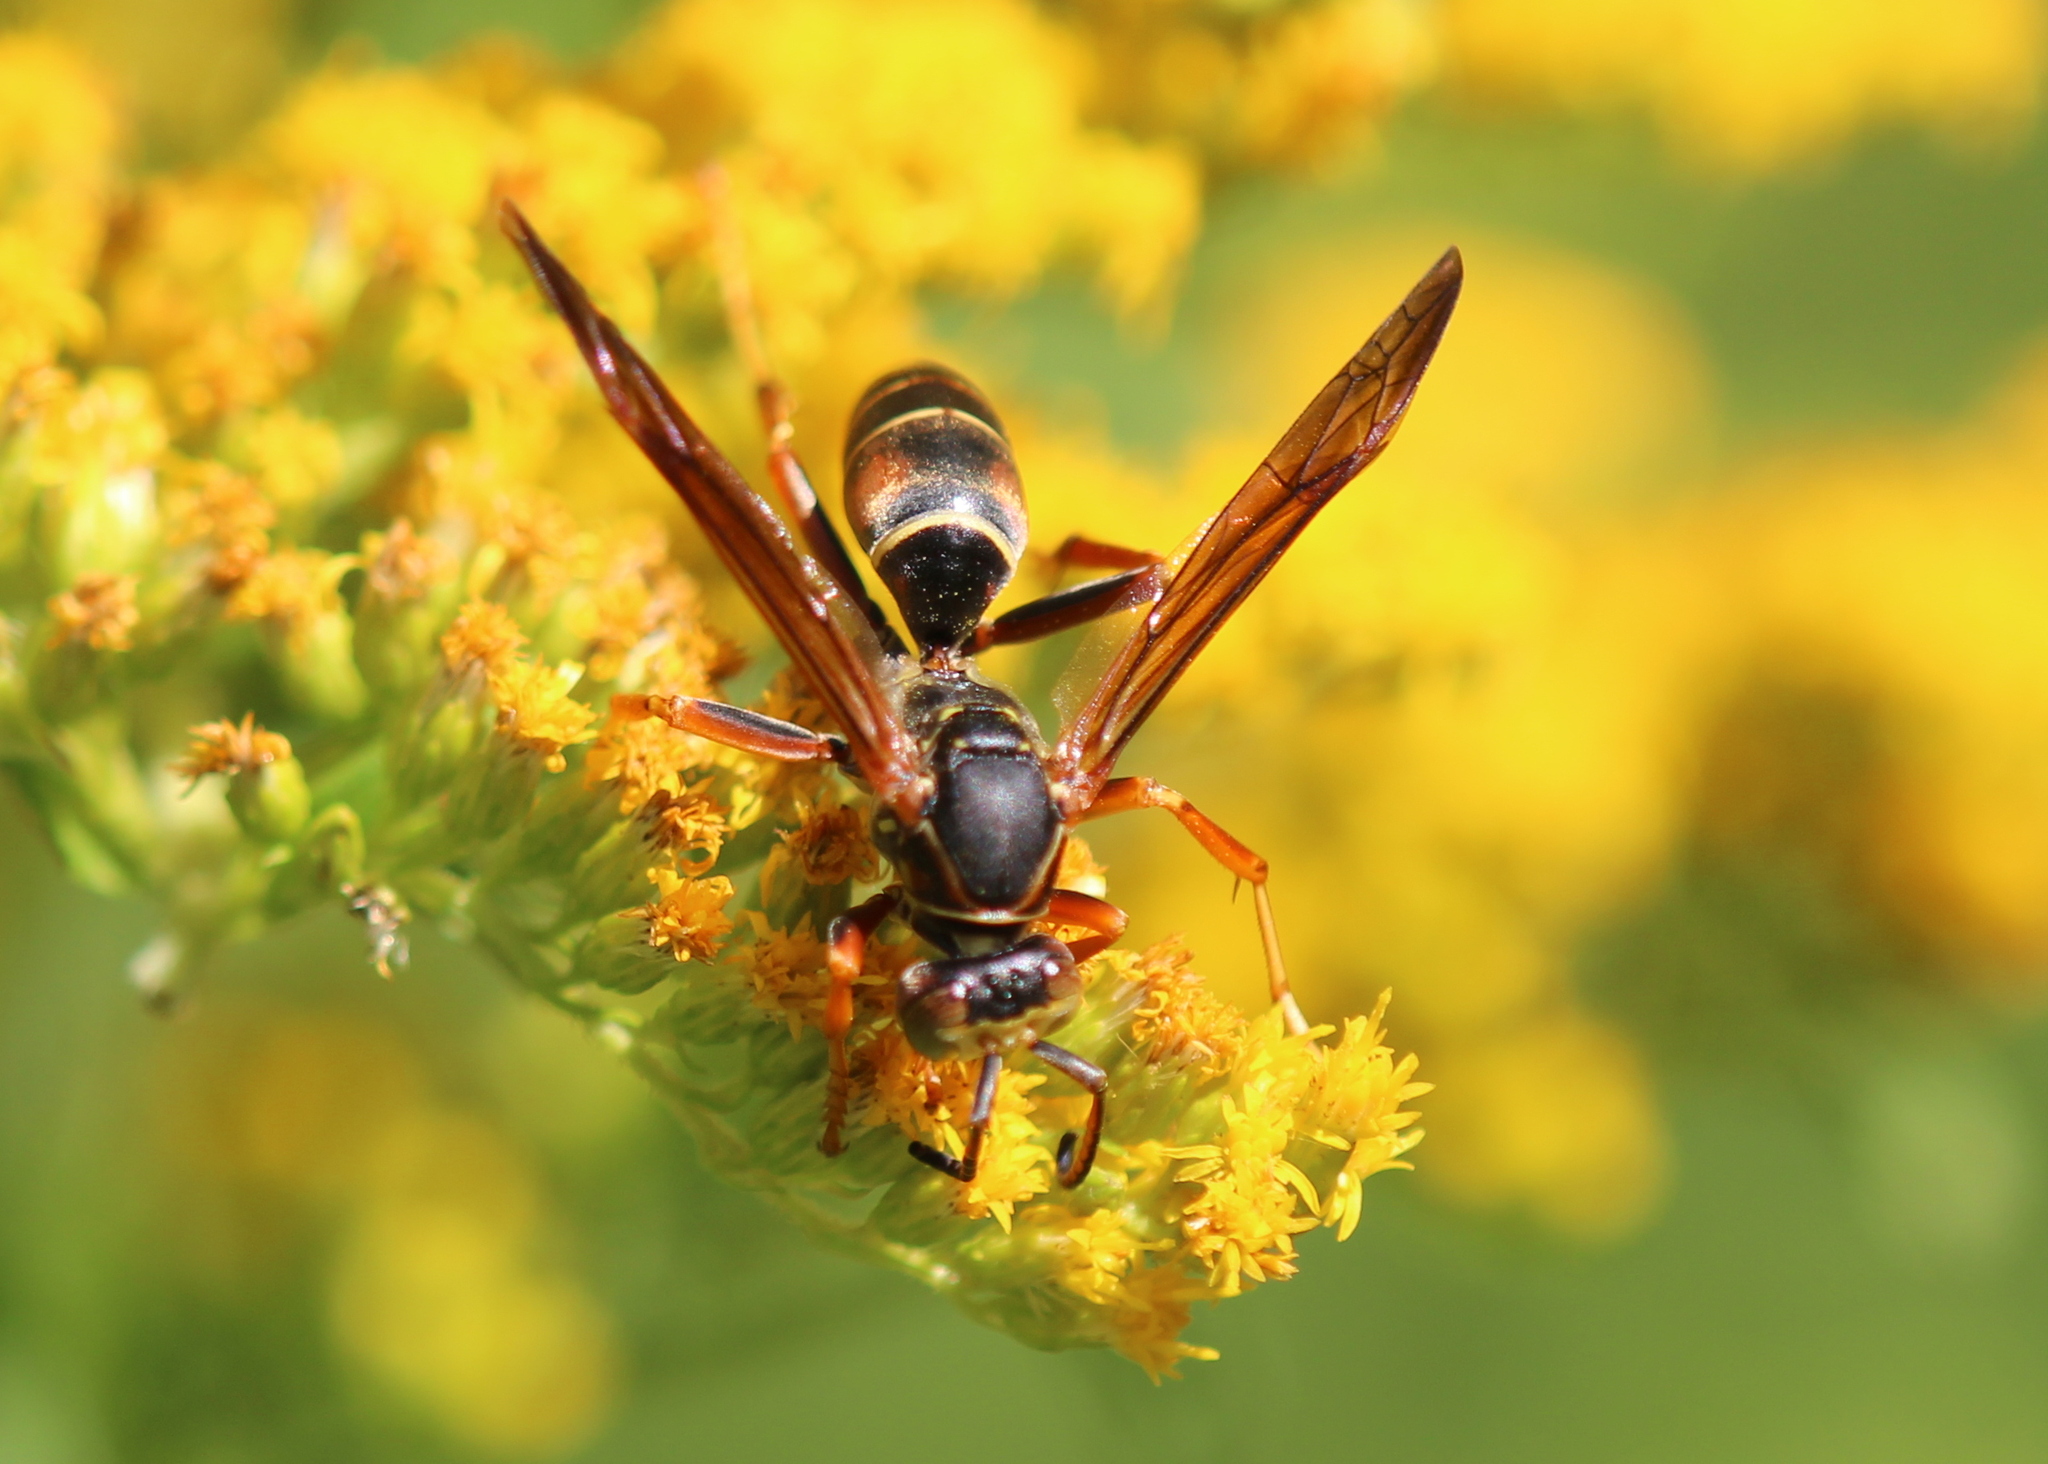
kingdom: Animalia
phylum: Arthropoda
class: Insecta
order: Hymenoptera
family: Eumenidae
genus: Polistes
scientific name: Polistes fuscatus
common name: Dark paper wasp
